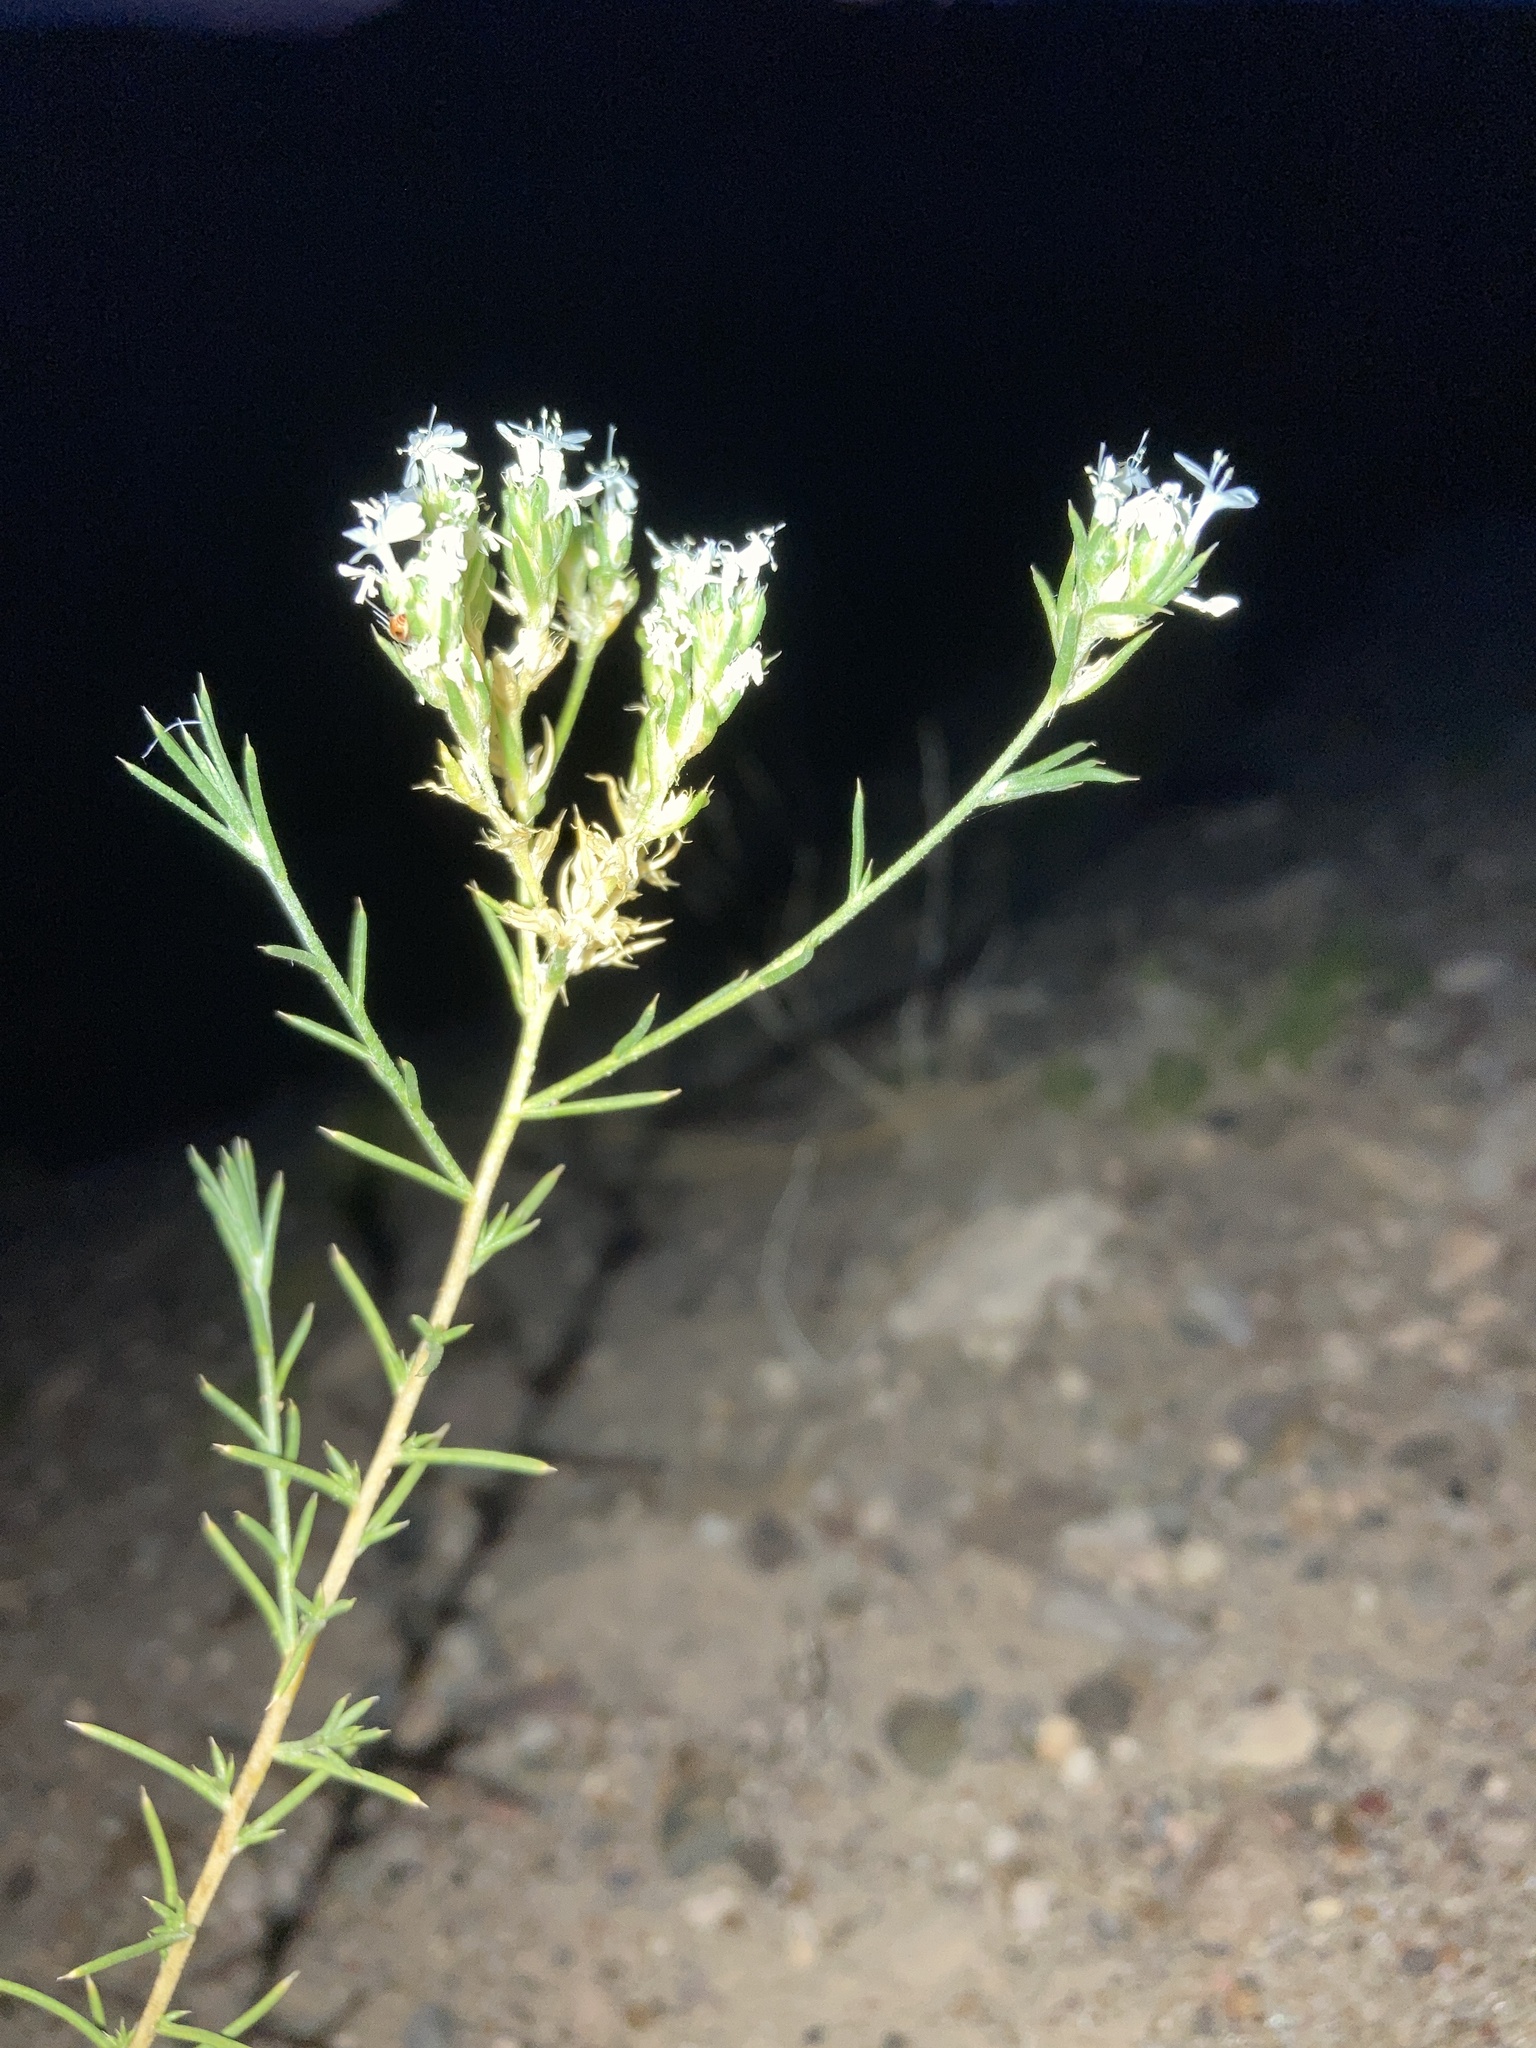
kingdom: Plantae
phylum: Tracheophyta
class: Magnoliopsida
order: Ericales
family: Polemoniaceae
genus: Ipomopsis
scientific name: Ipomopsis wrightii
